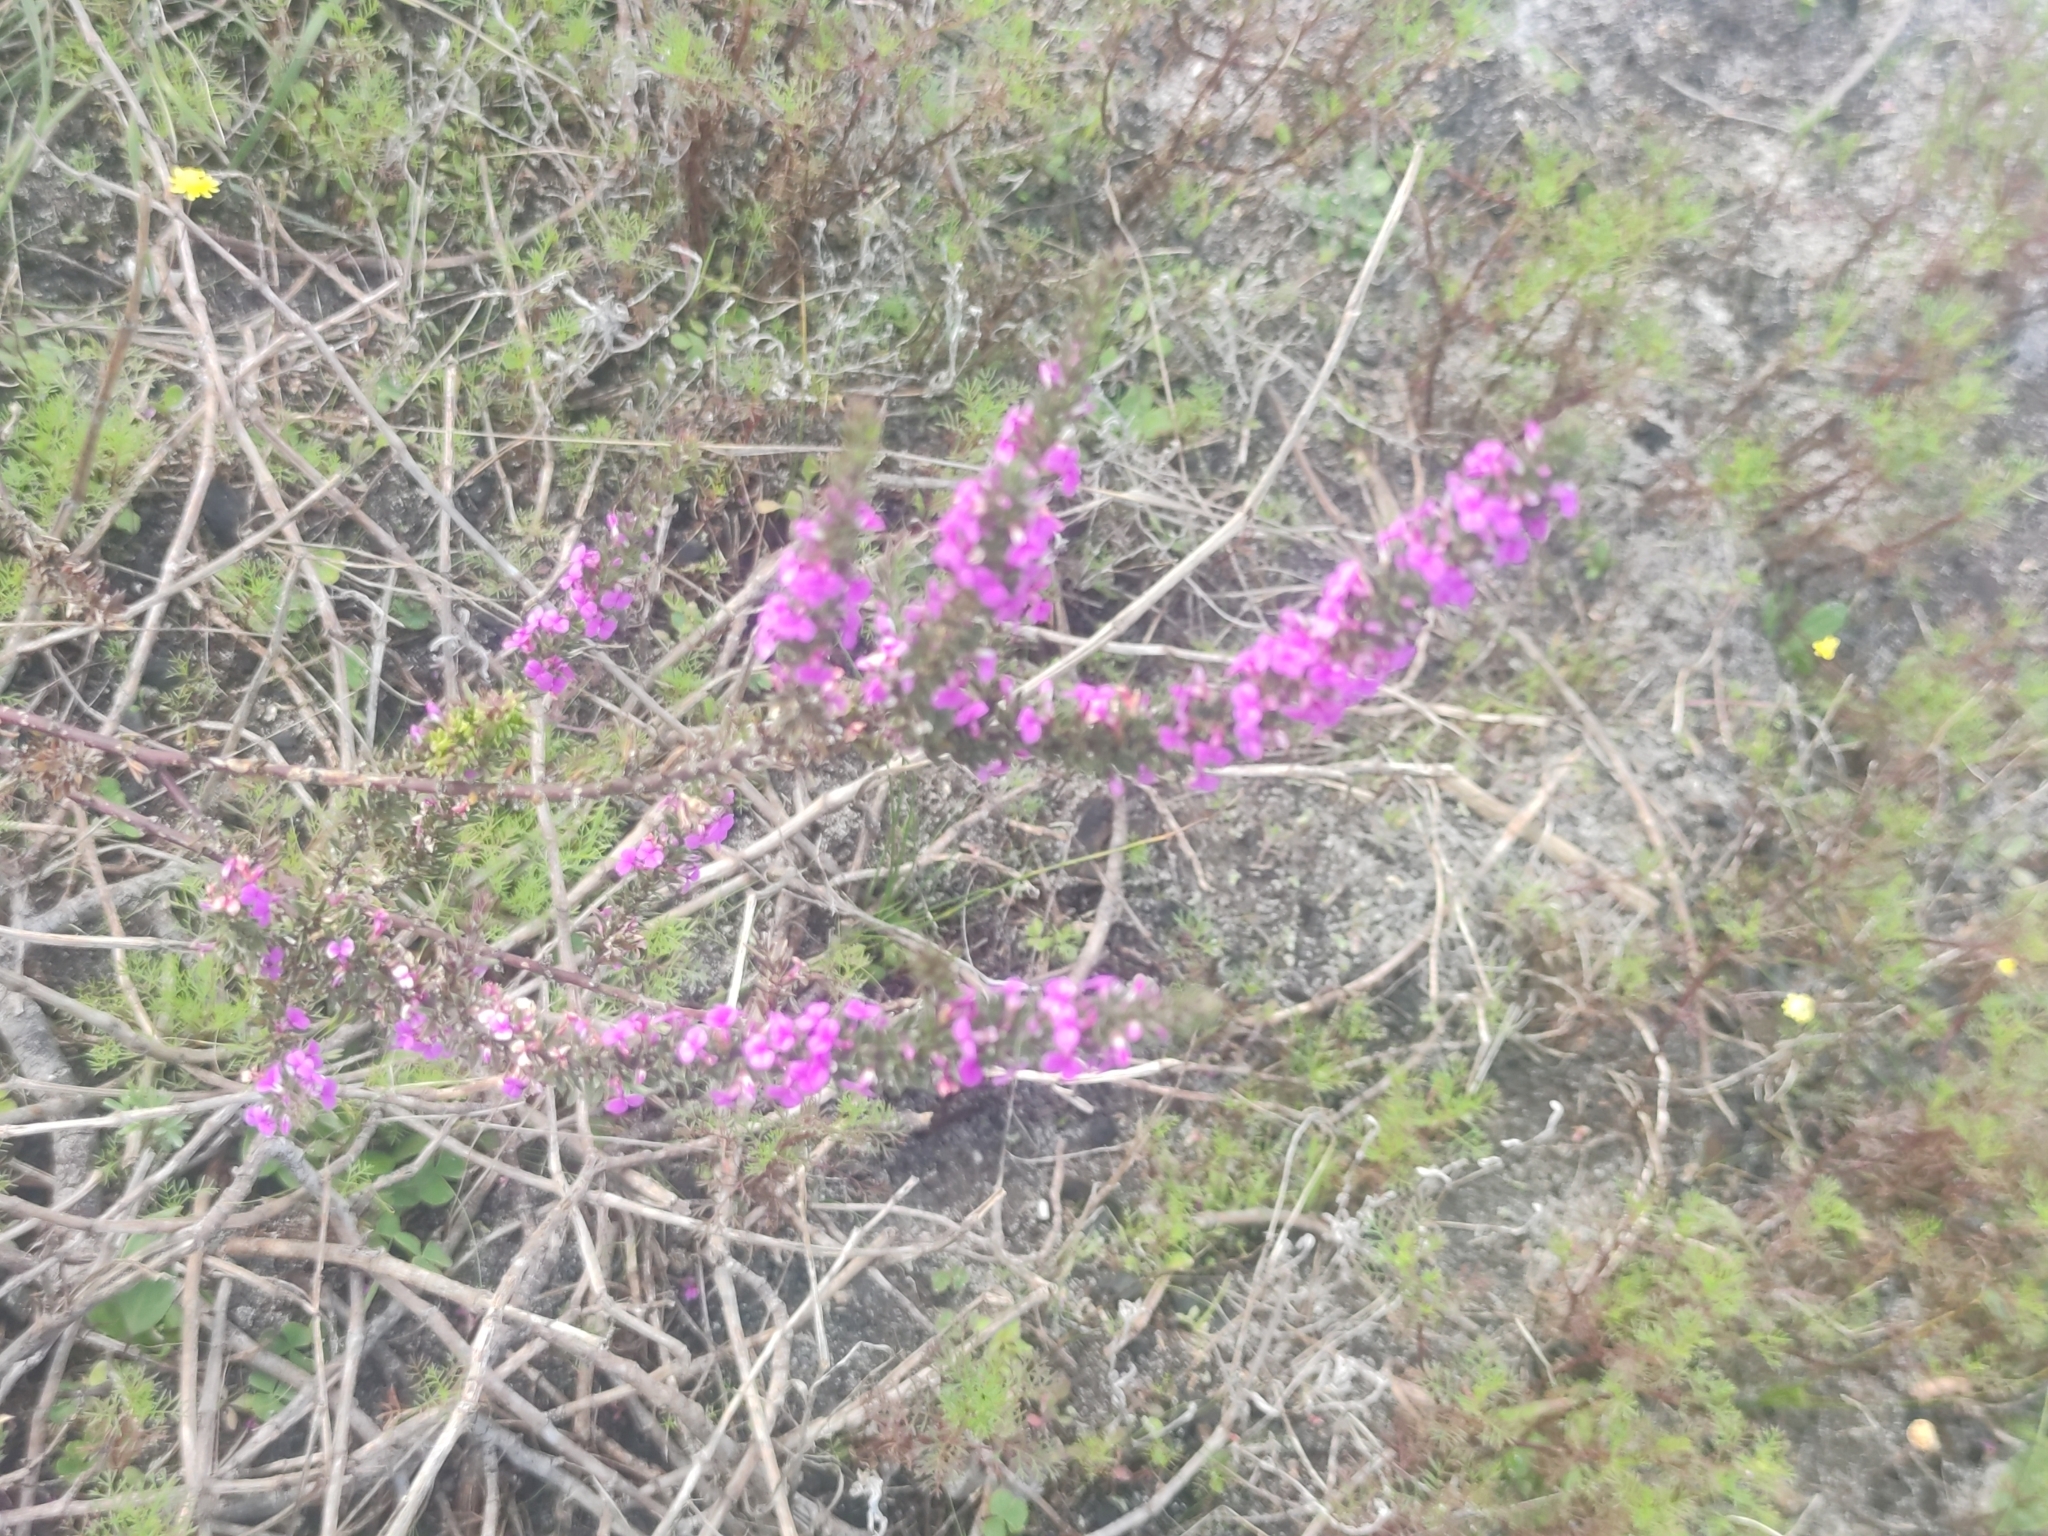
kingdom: Plantae
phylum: Tracheophyta
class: Magnoliopsida
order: Fabales
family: Polygalaceae
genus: Muraltia
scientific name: Muraltia heisteria
